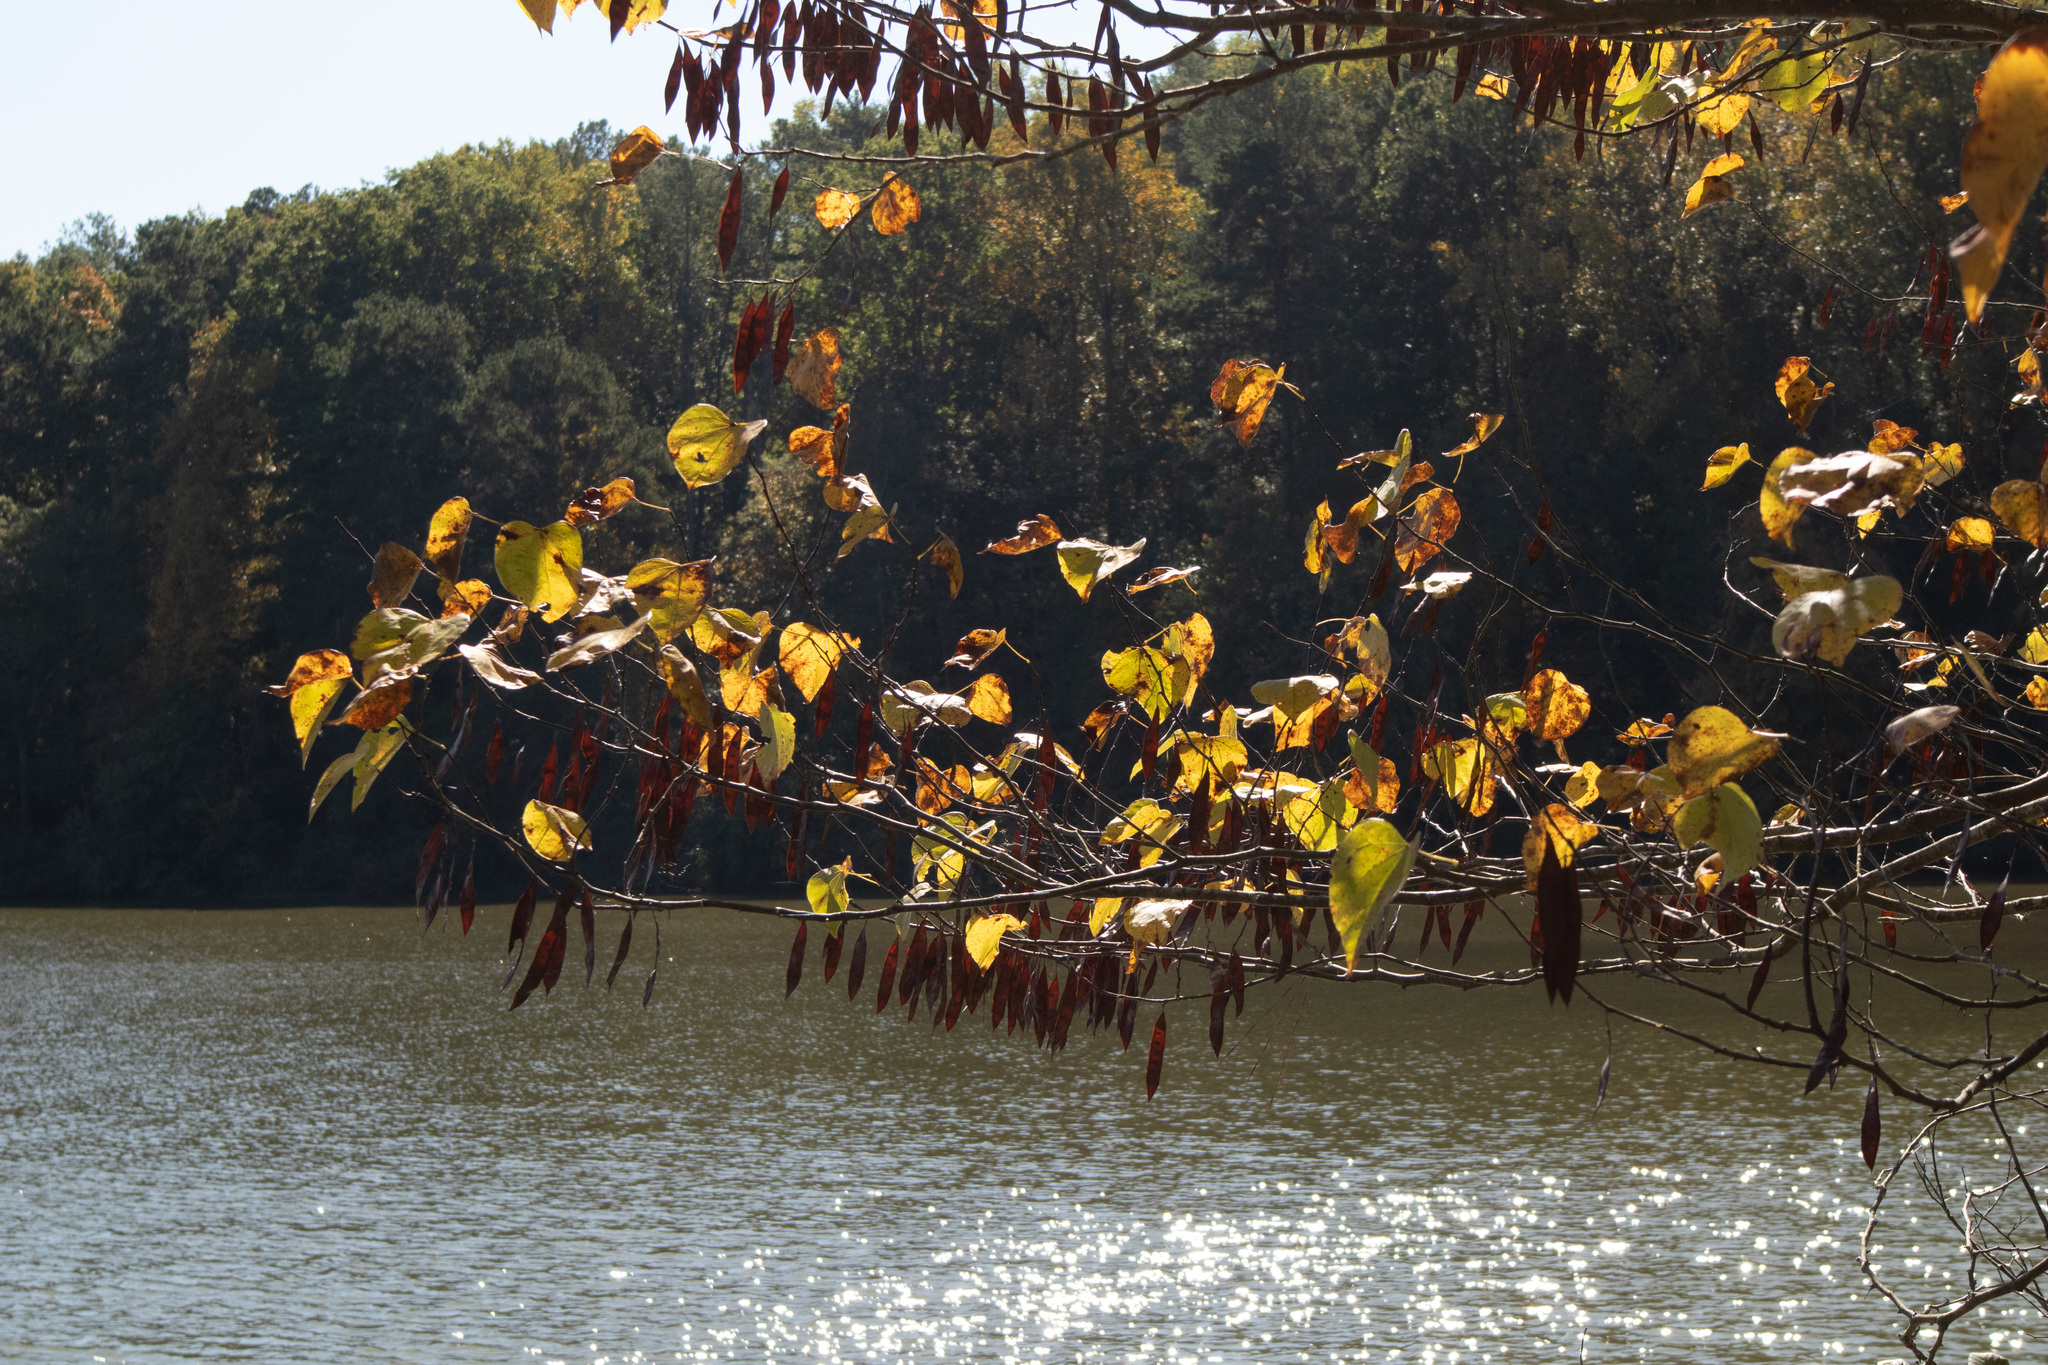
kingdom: Plantae
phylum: Tracheophyta
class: Magnoliopsida
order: Fabales
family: Fabaceae
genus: Cercis
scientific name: Cercis canadensis
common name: Eastern redbud
